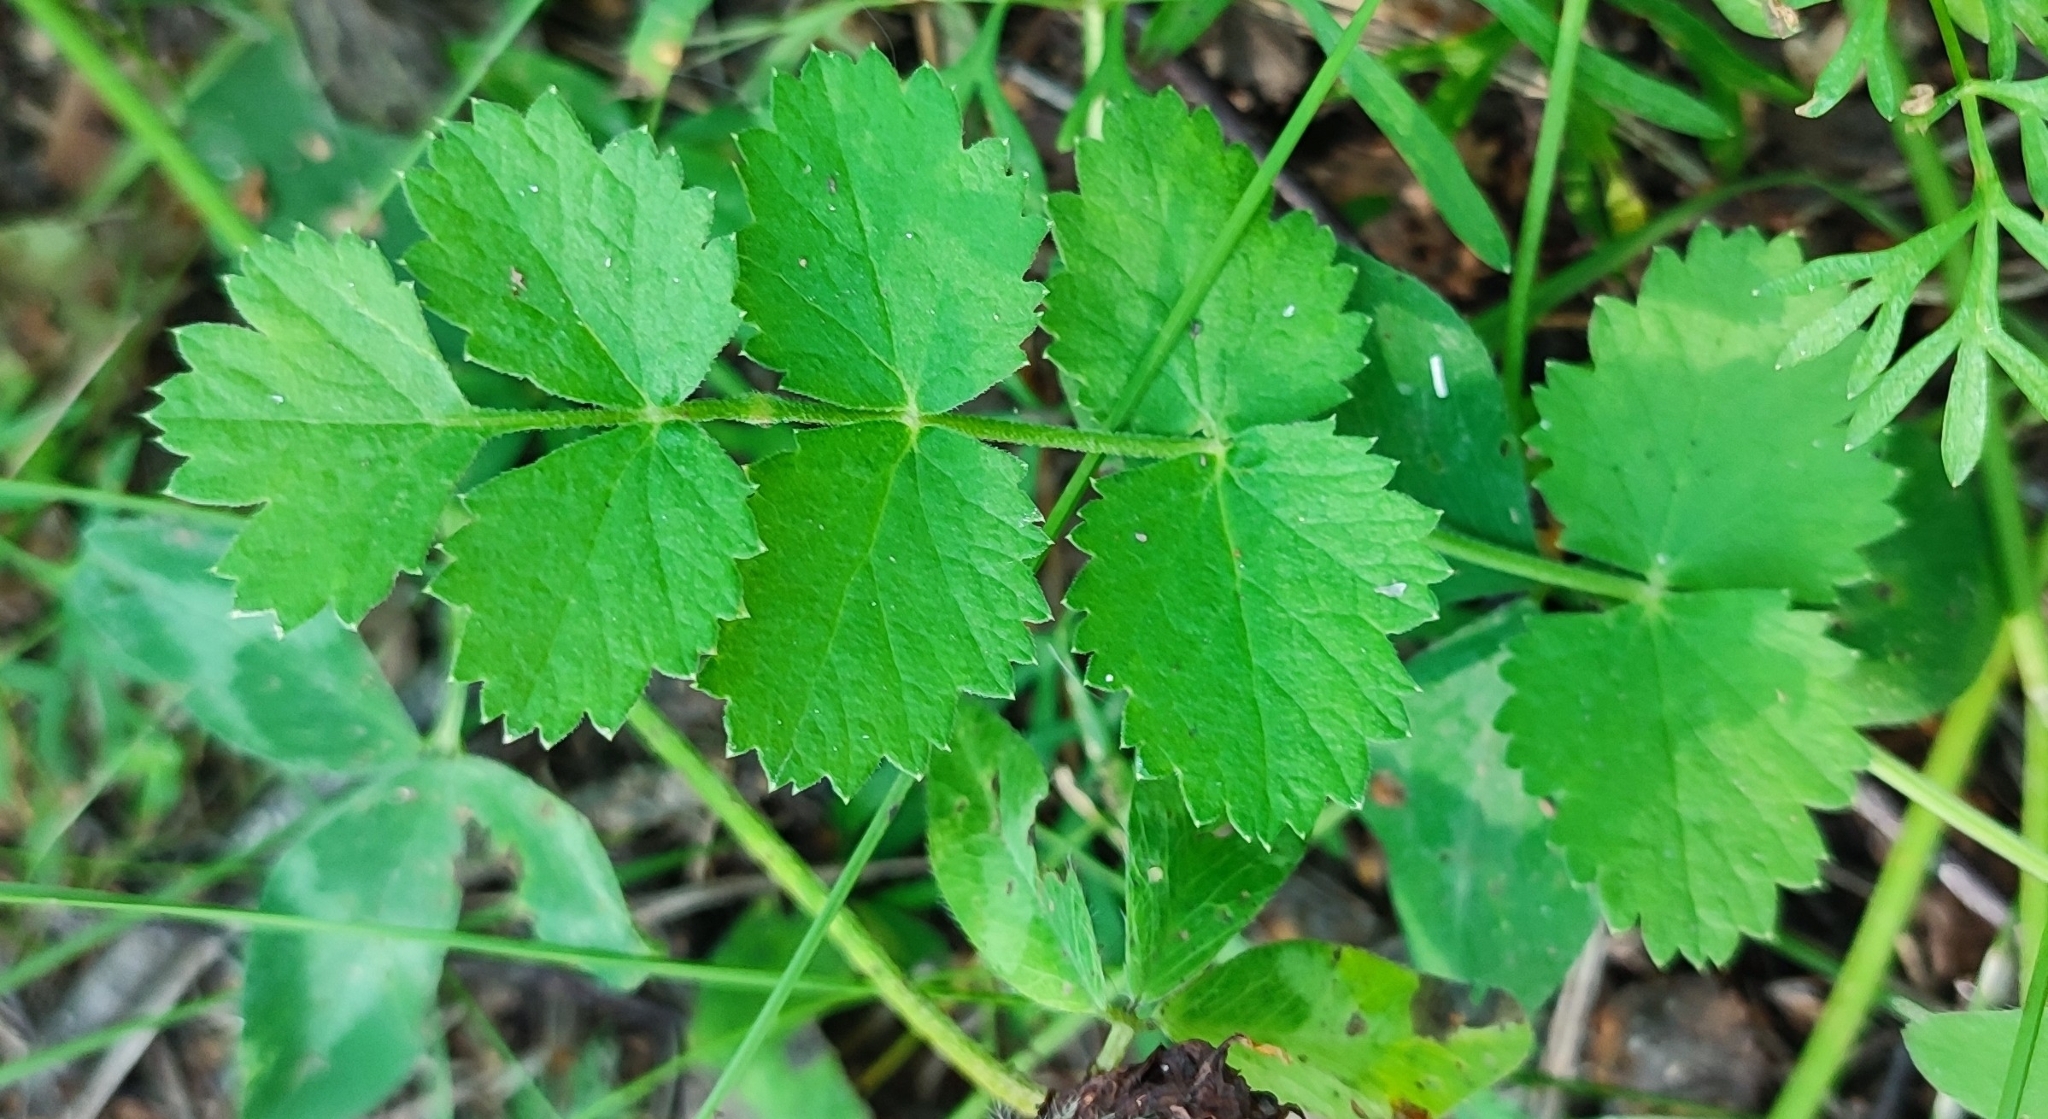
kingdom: Plantae
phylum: Tracheophyta
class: Magnoliopsida
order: Apiales
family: Apiaceae
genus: Pimpinella
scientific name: Pimpinella saxifraga
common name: Burnet-saxifrage
